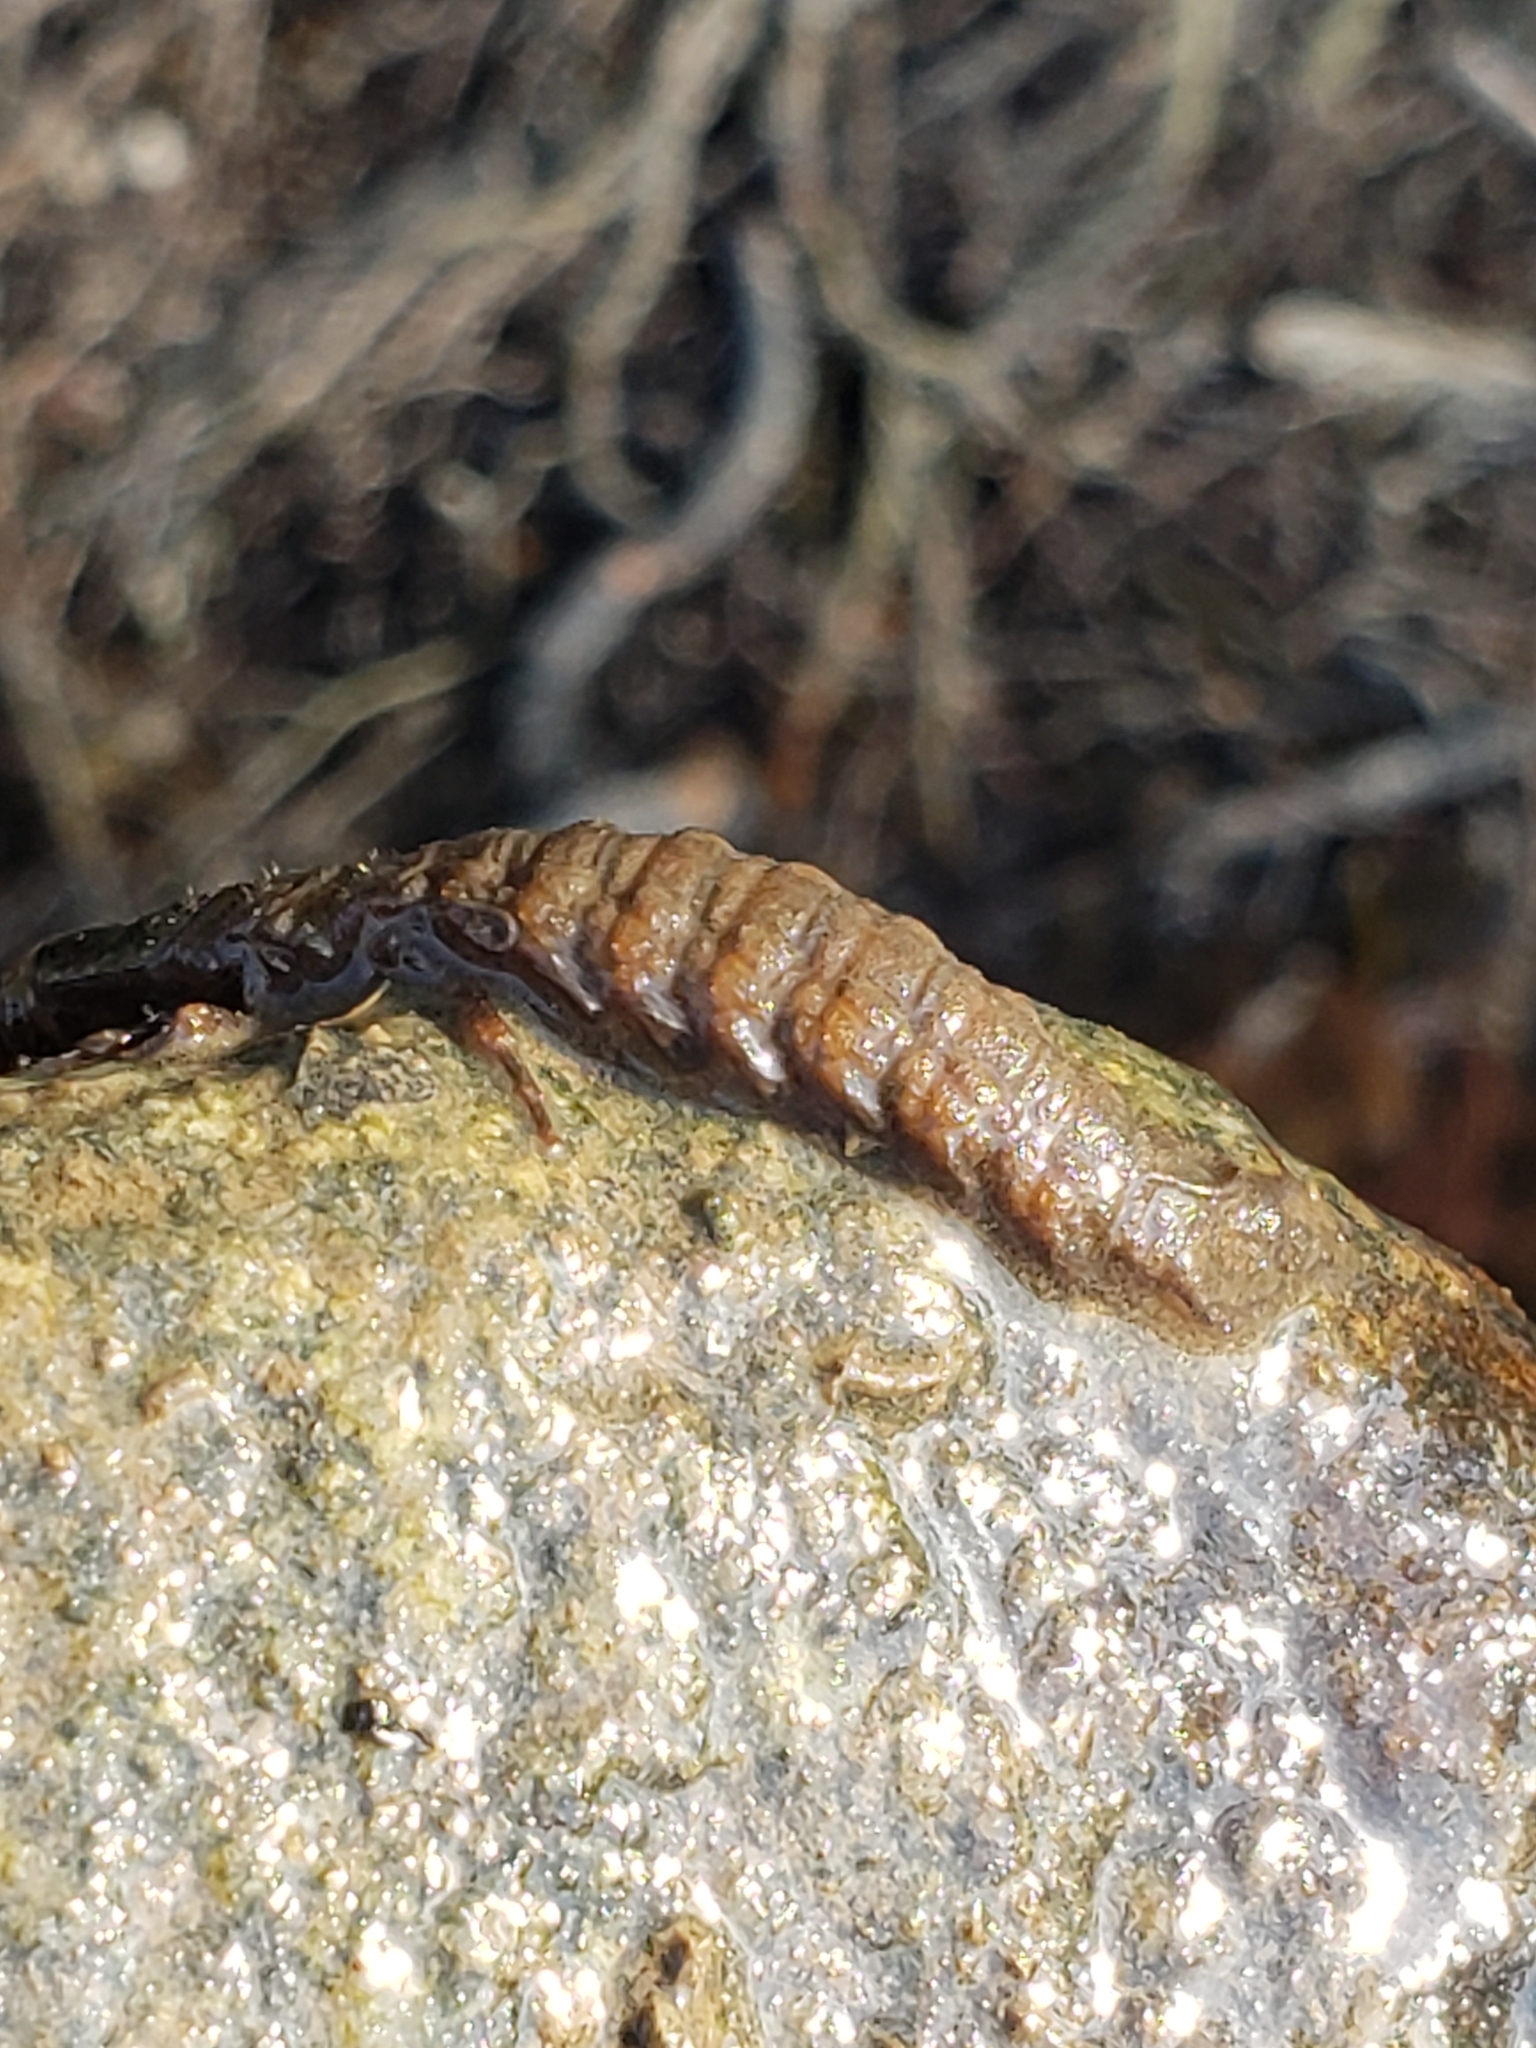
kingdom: Animalia
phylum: Arthropoda
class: Insecta
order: Megaloptera
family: Corydalidae
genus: Corydalus
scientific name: Corydalus cornutus
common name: Dobsonfly
